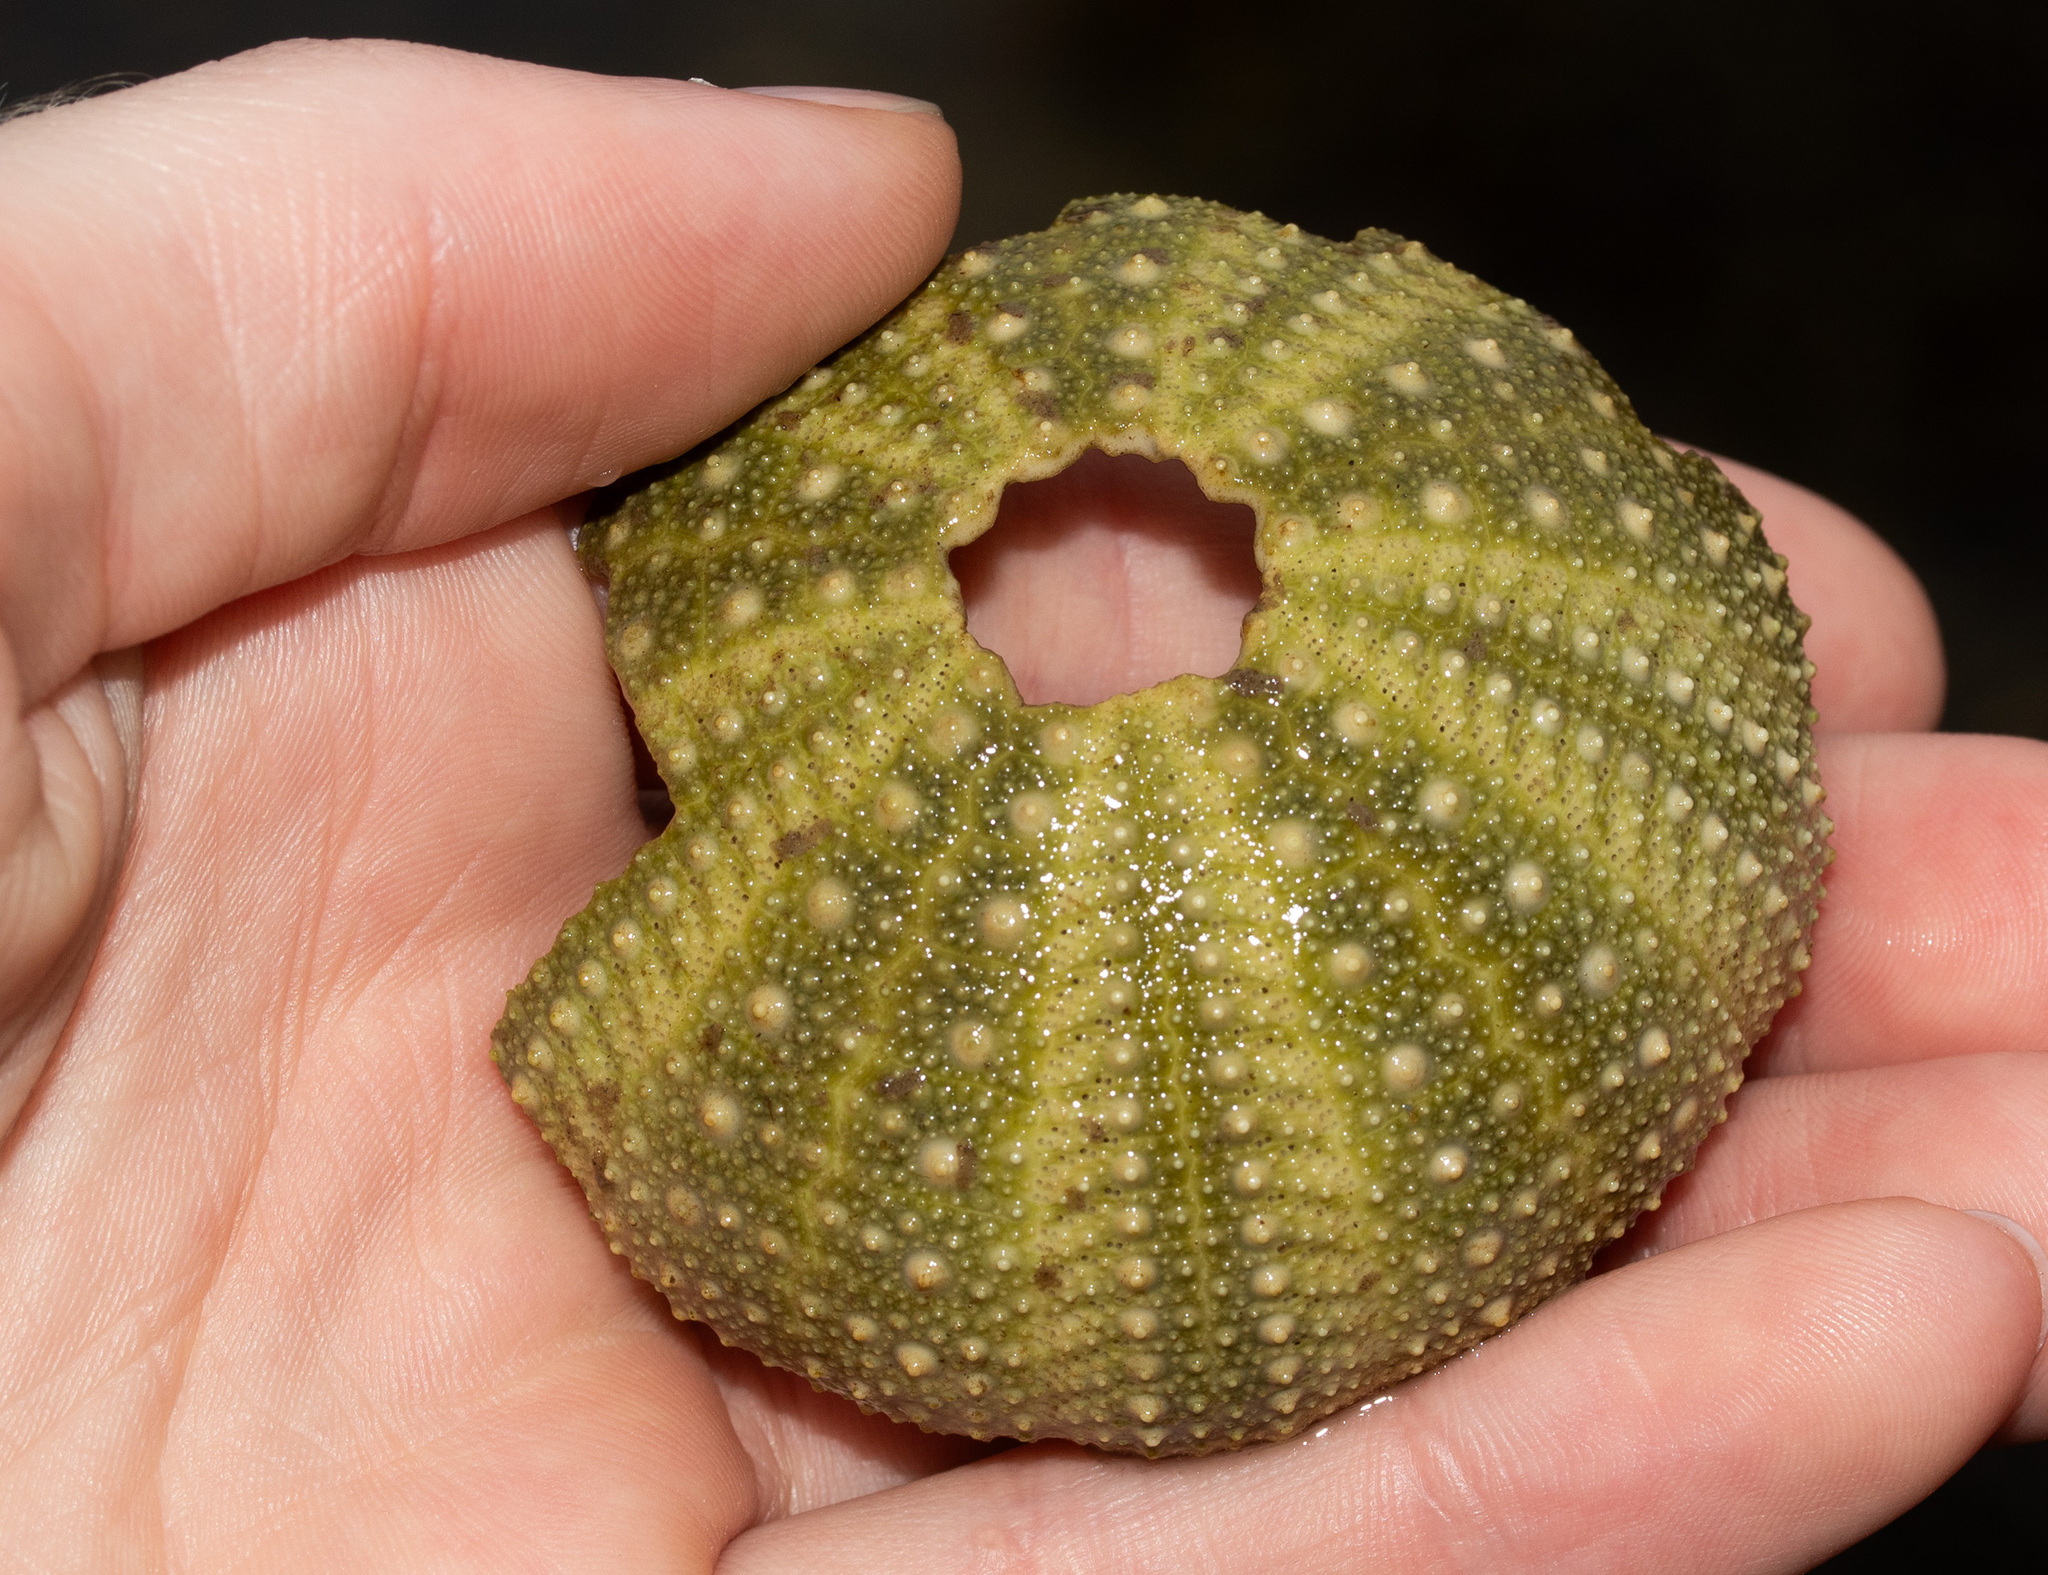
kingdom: Animalia
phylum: Echinodermata
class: Echinoidea
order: Camarodonta
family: Strongylocentrotidae
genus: Strongylocentrotus
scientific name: Strongylocentrotus droebachiensis
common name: Northern sea urchin
